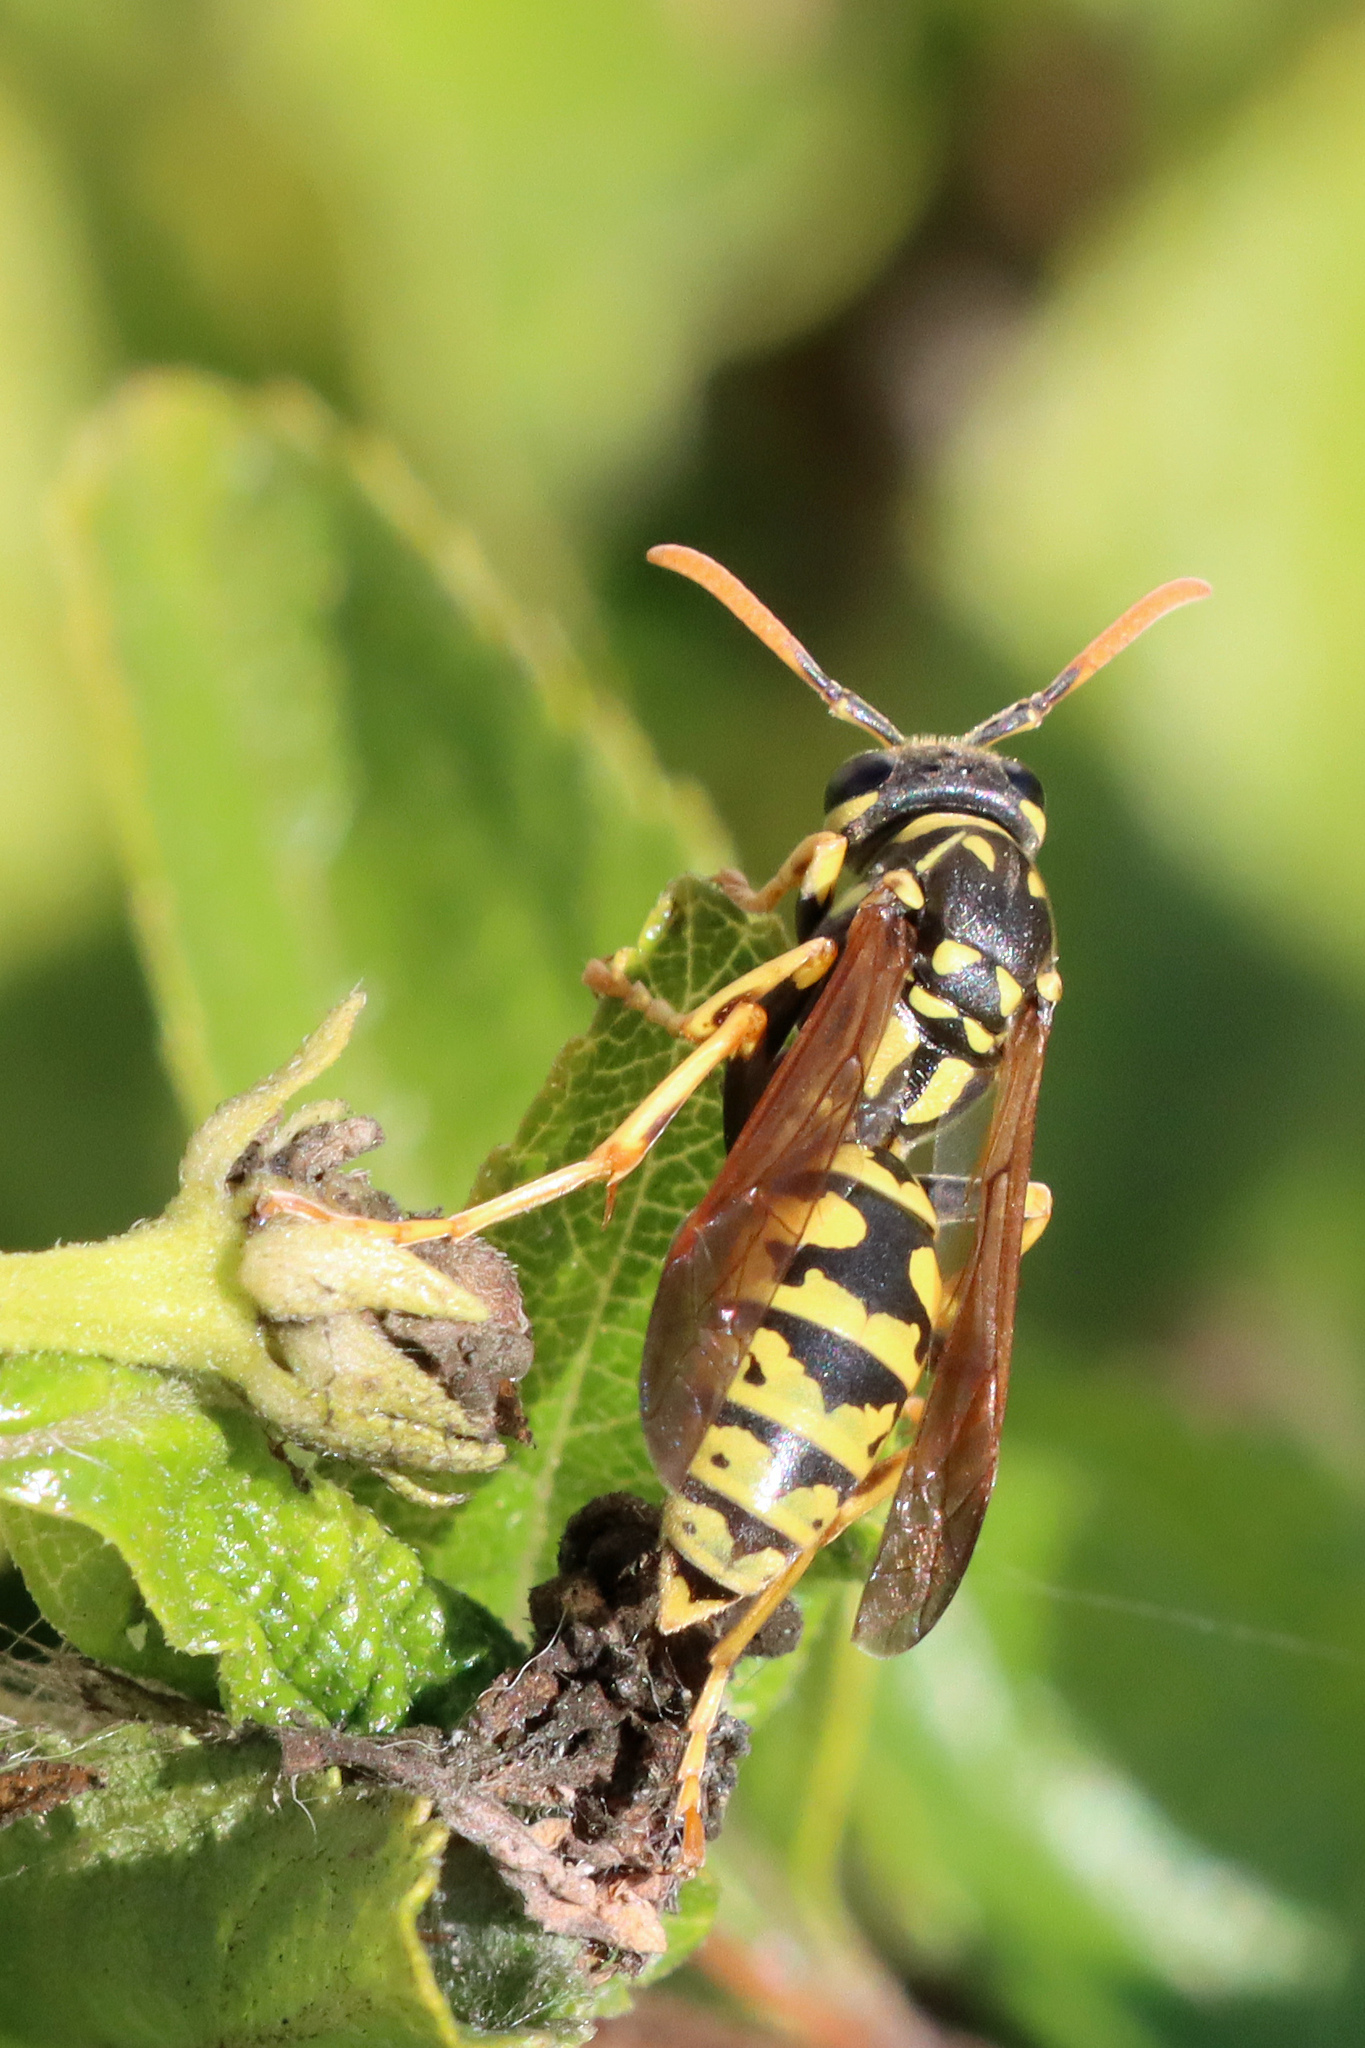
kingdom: Animalia
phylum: Arthropoda
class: Insecta
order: Hymenoptera
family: Eumenidae
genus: Polistes
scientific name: Polistes dominula
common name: Paper wasp
